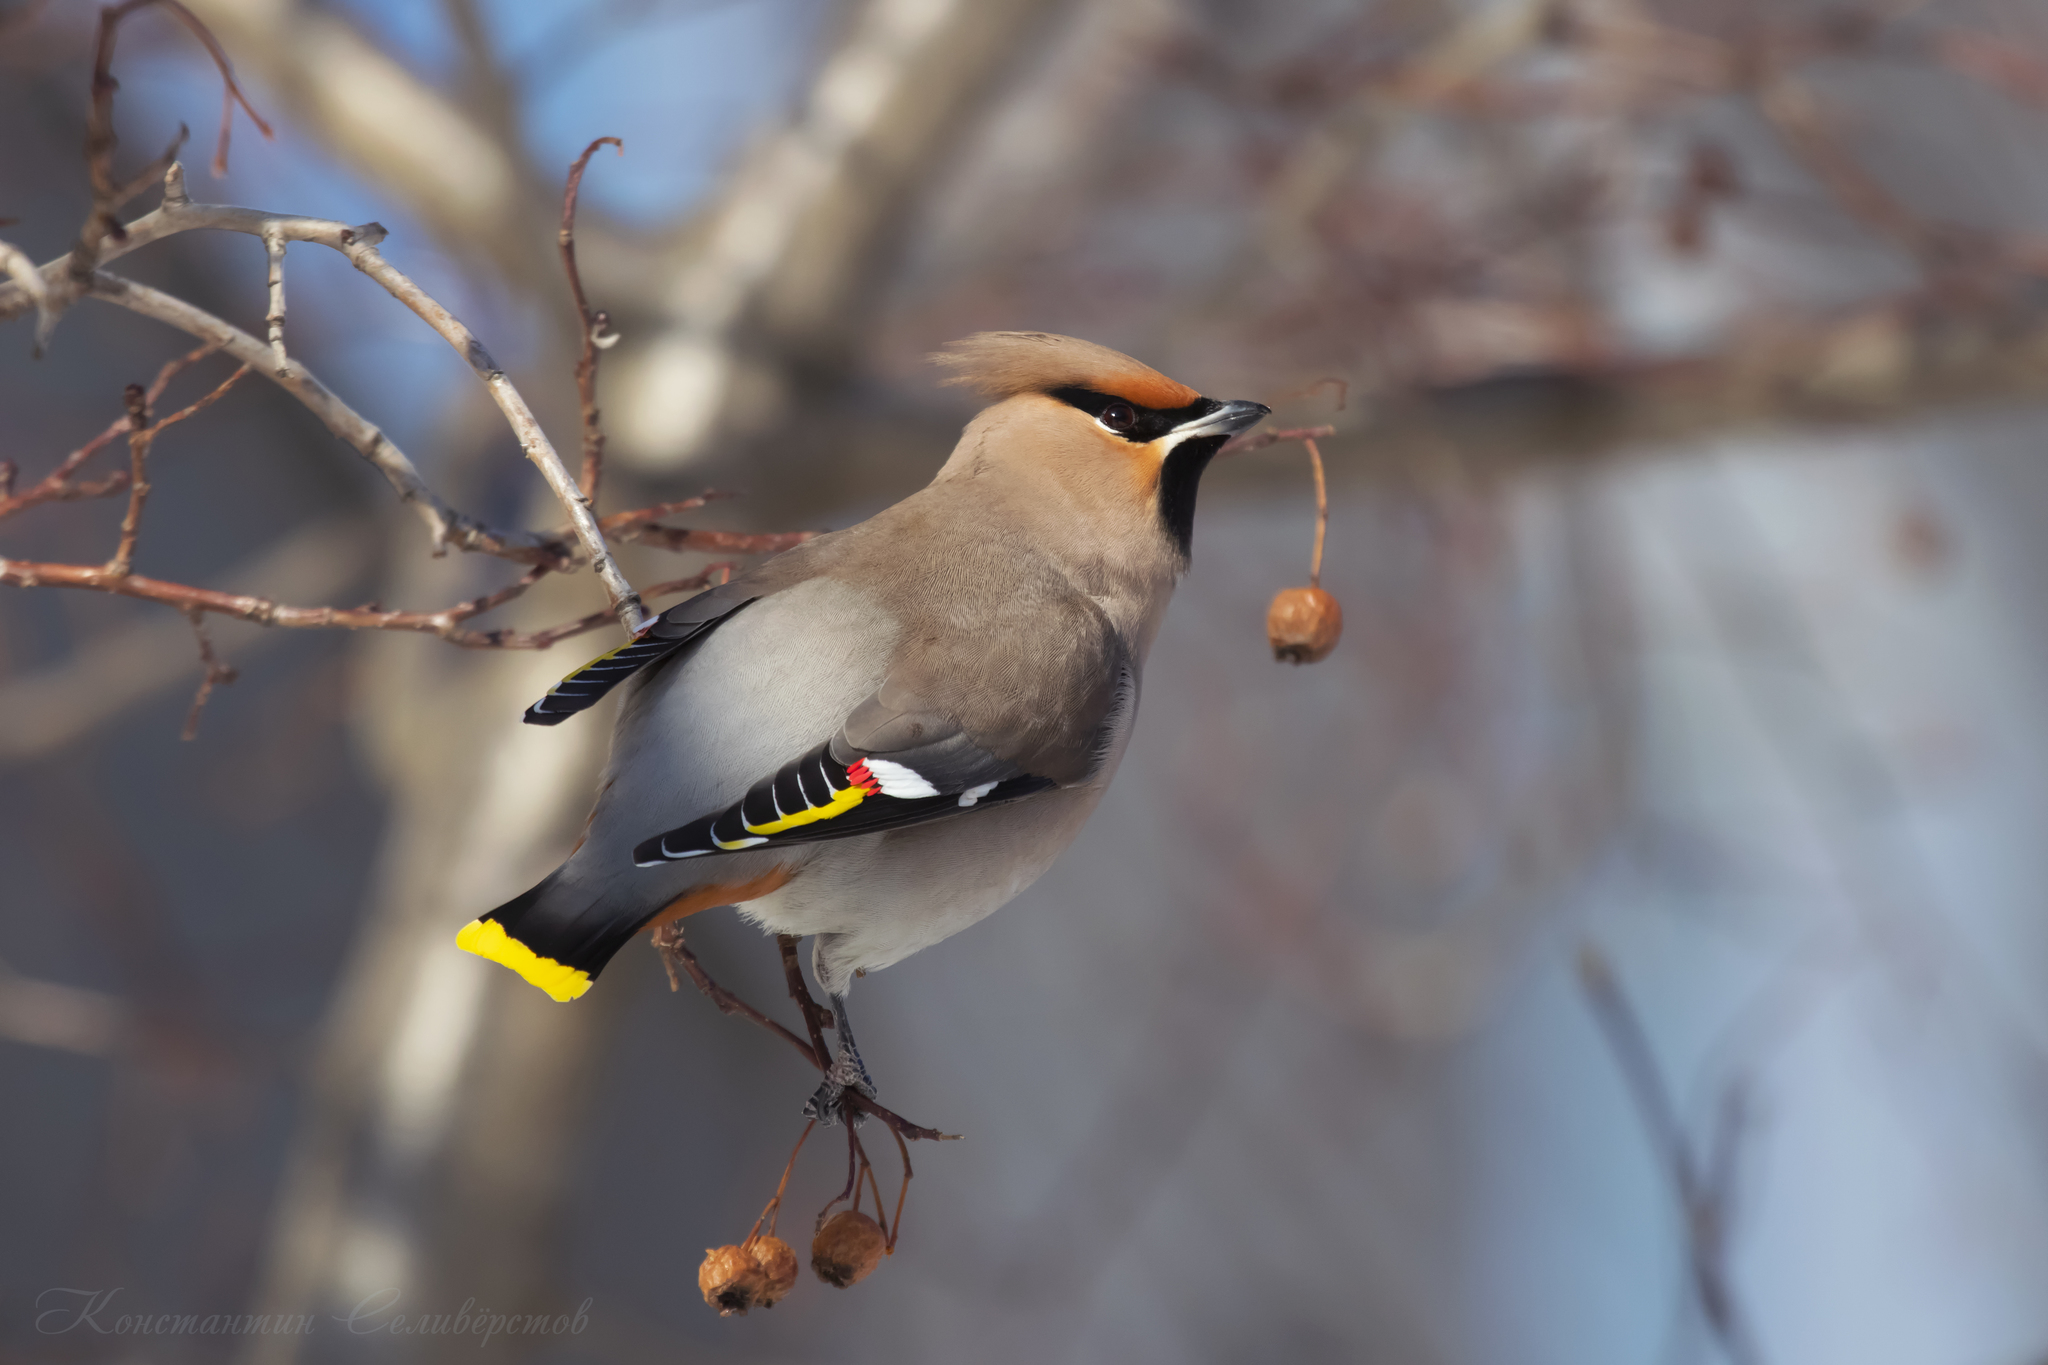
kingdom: Animalia
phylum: Chordata
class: Aves
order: Passeriformes
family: Bombycillidae
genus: Bombycilla
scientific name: Bombycilla garrulus
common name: Bohemian waxwing
